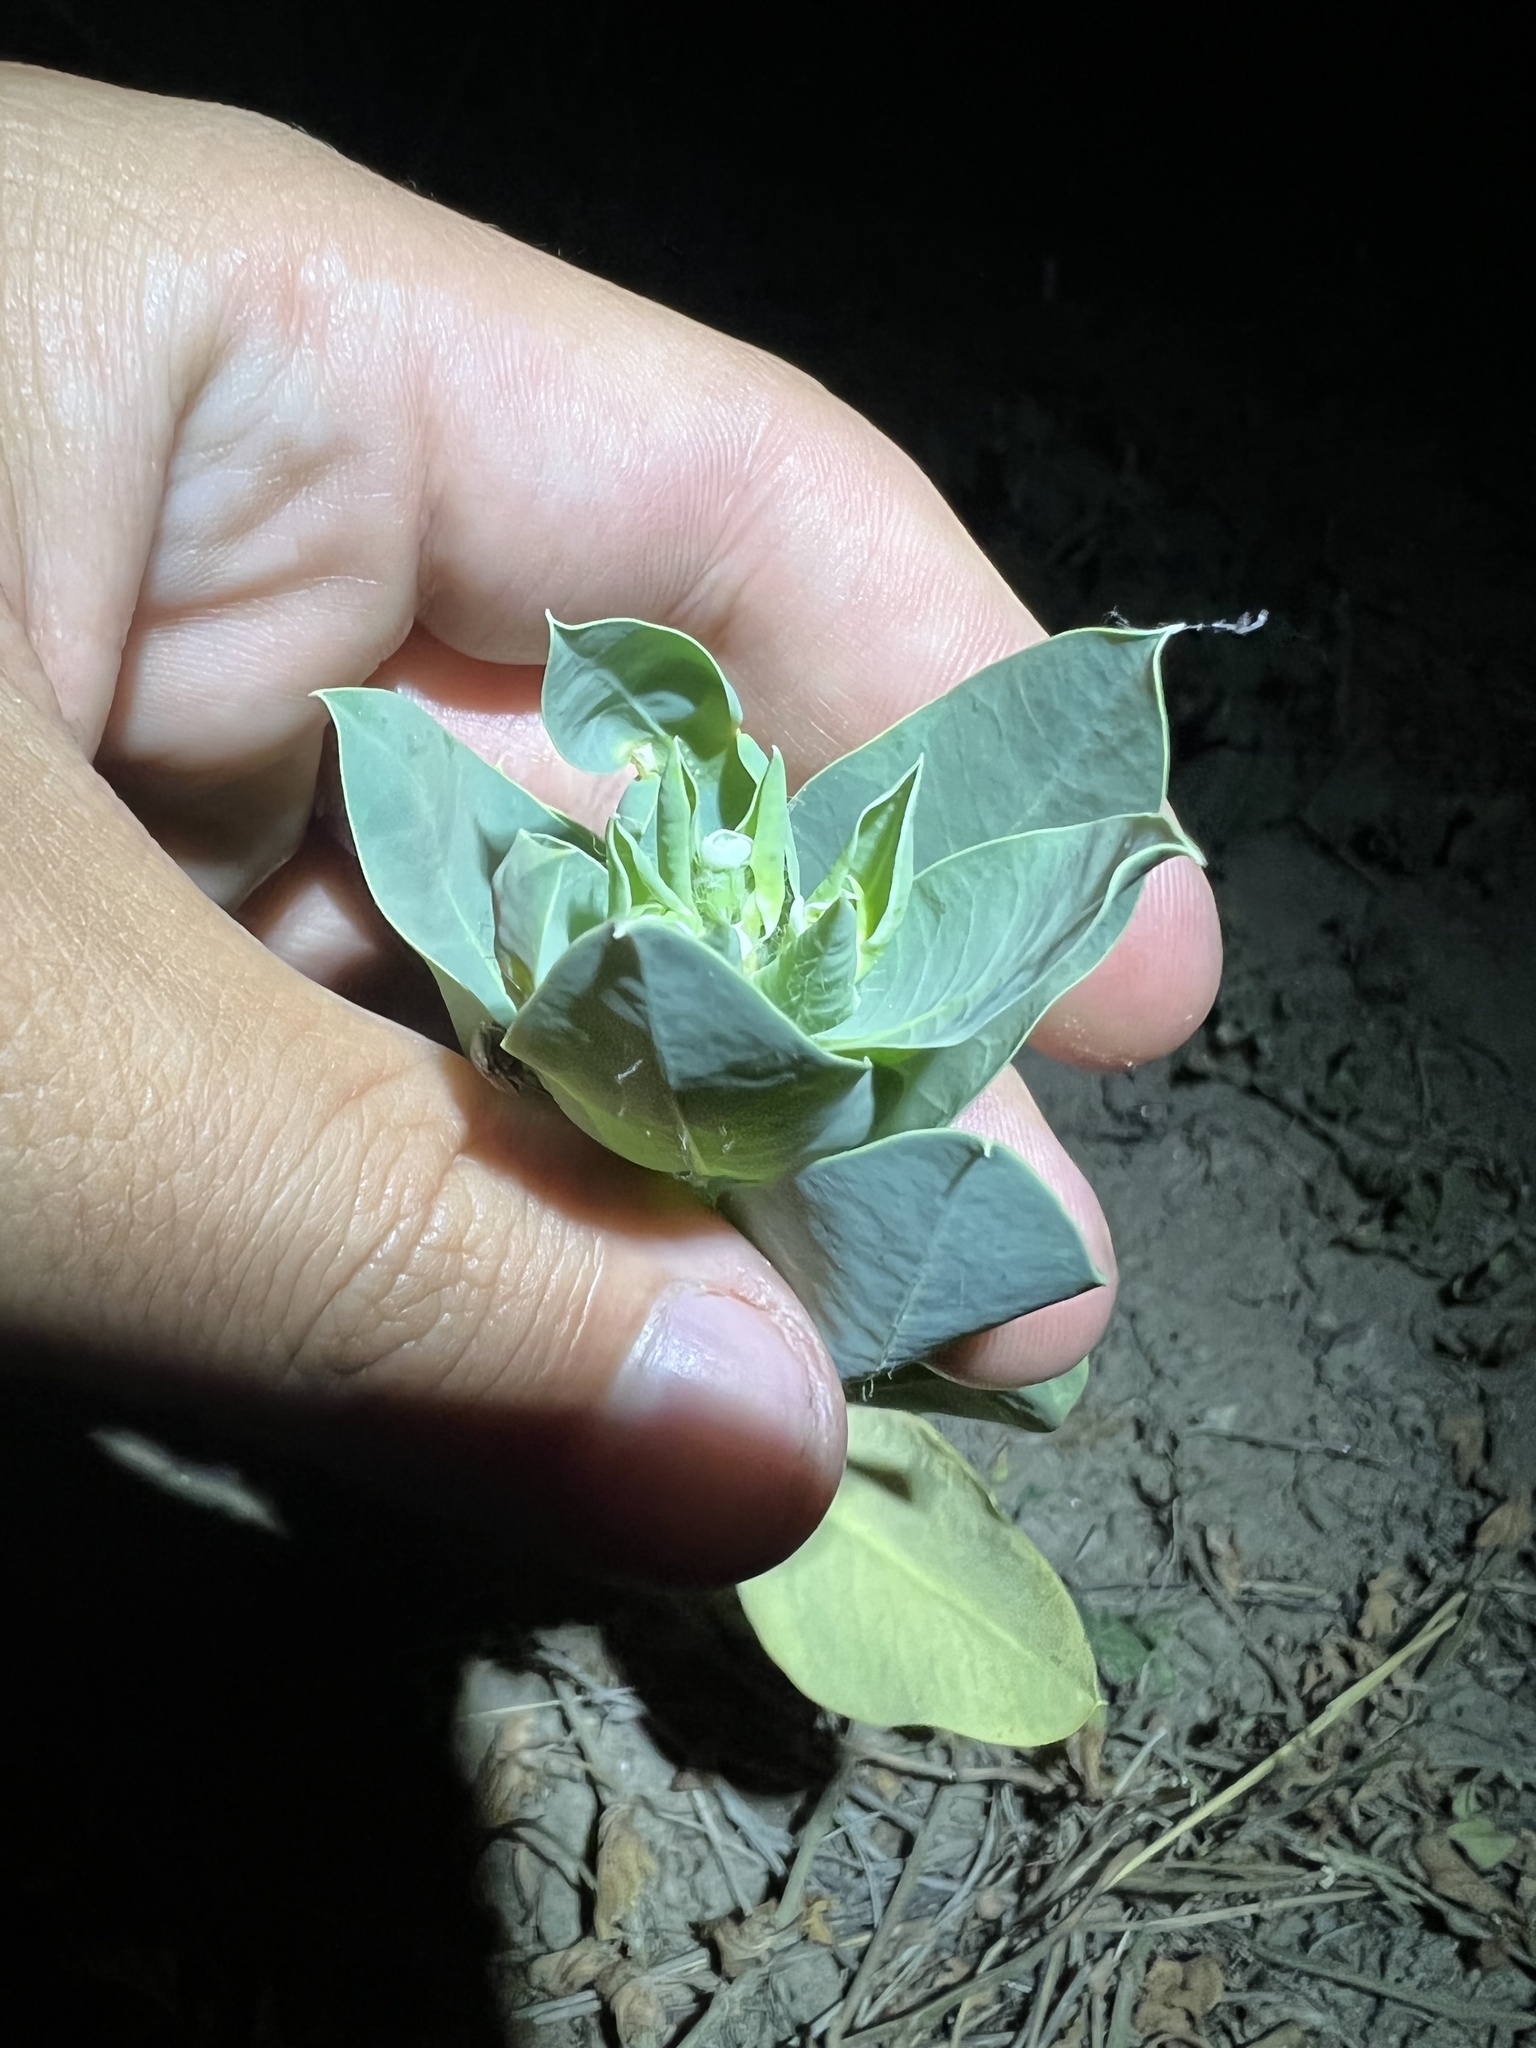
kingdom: Plantae
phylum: Tracheophyta
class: Magnoliopsida
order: Malpighiales
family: Euphorbiaceae
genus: Euphorbia
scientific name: Euphorbia marginata
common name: Ghostweed
